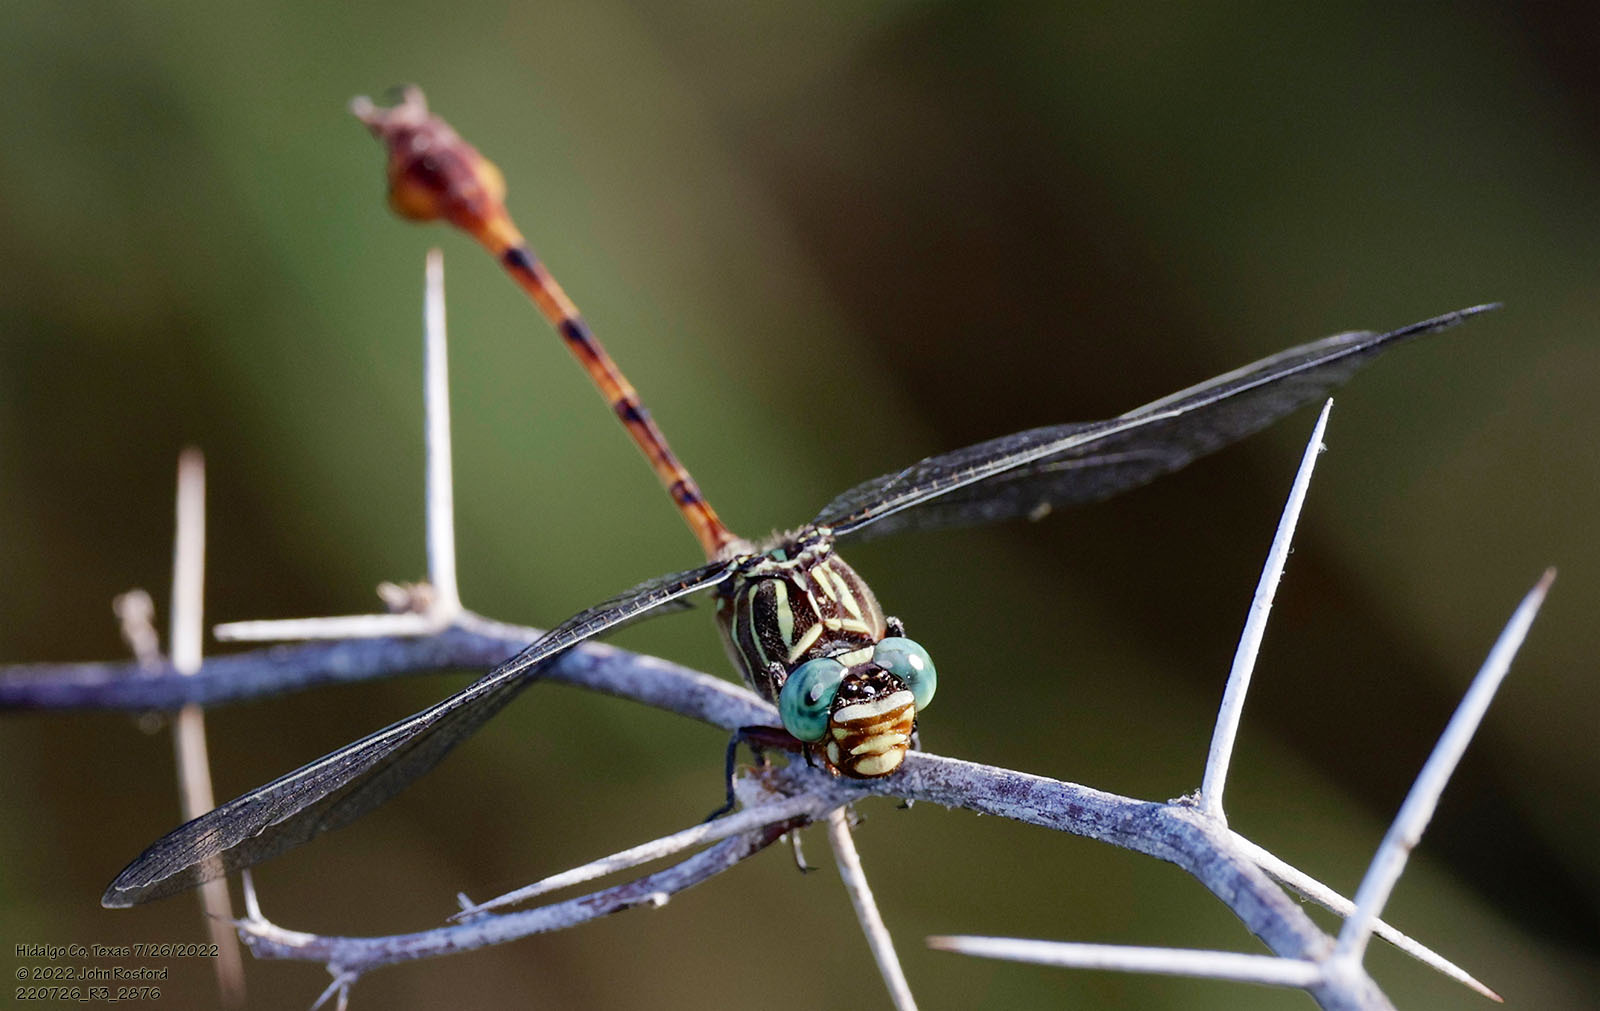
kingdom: Animalia
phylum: Arthropoda
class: Insecta
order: Odonata
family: Gomphidae
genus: Aphylla
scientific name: Aphylla protracta
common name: Narrow-striped forceptail
